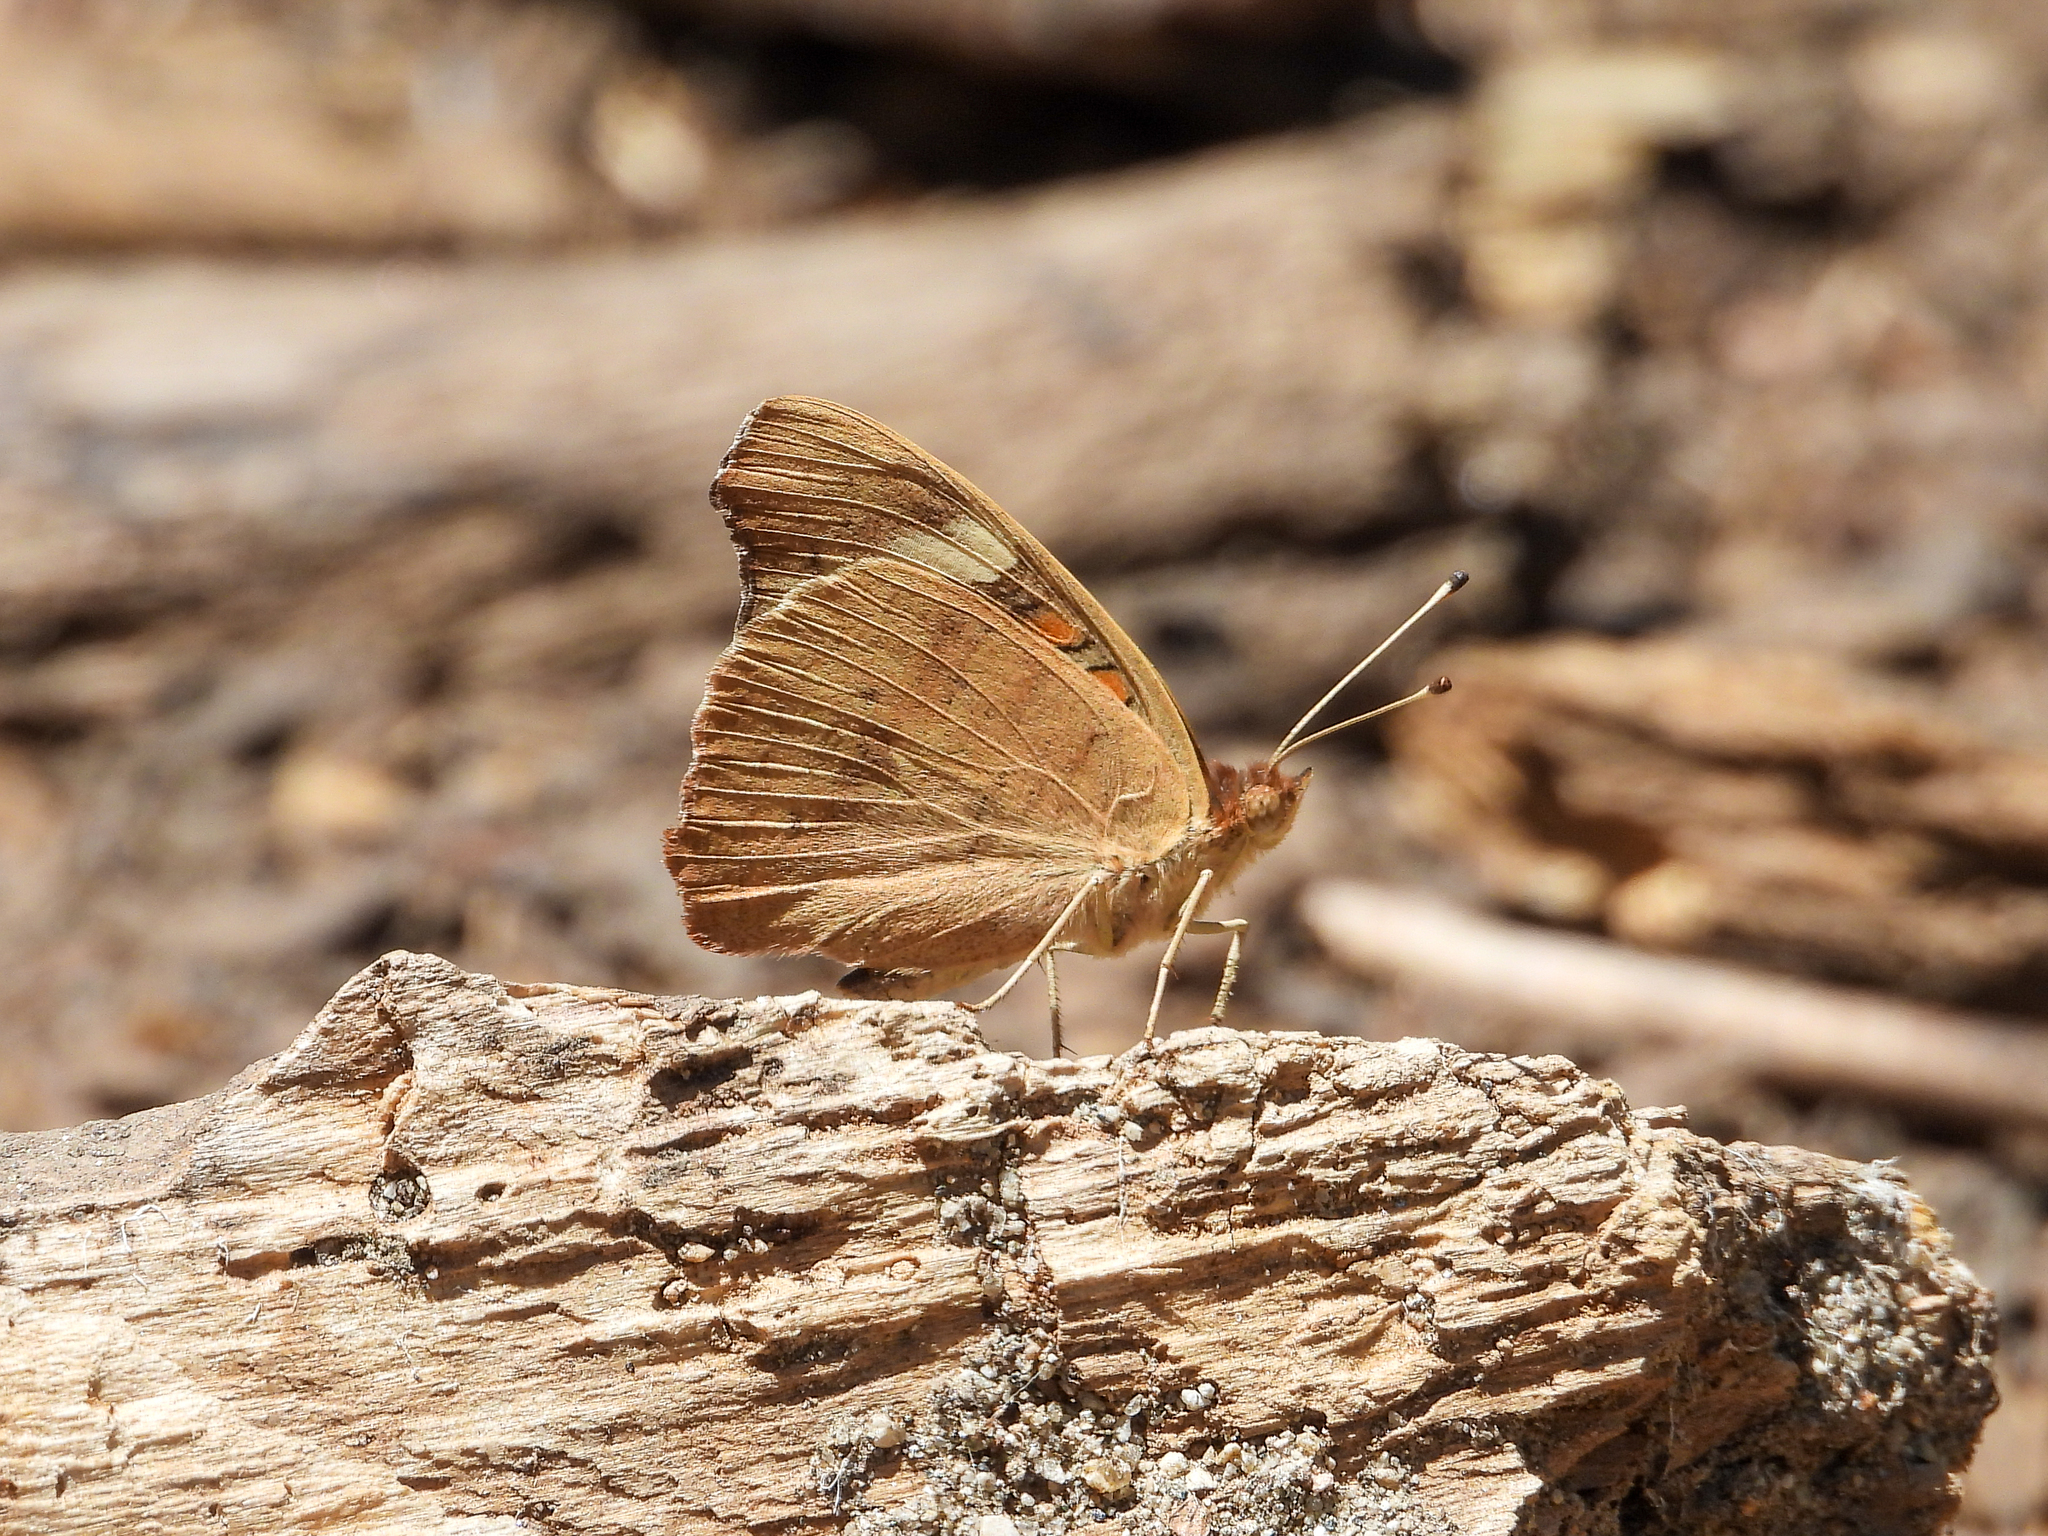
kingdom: Animalia
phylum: Arthropoda
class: Insecta
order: Lepidoptera
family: Nymphalidae
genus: Junonia
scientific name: Junonia grisea
